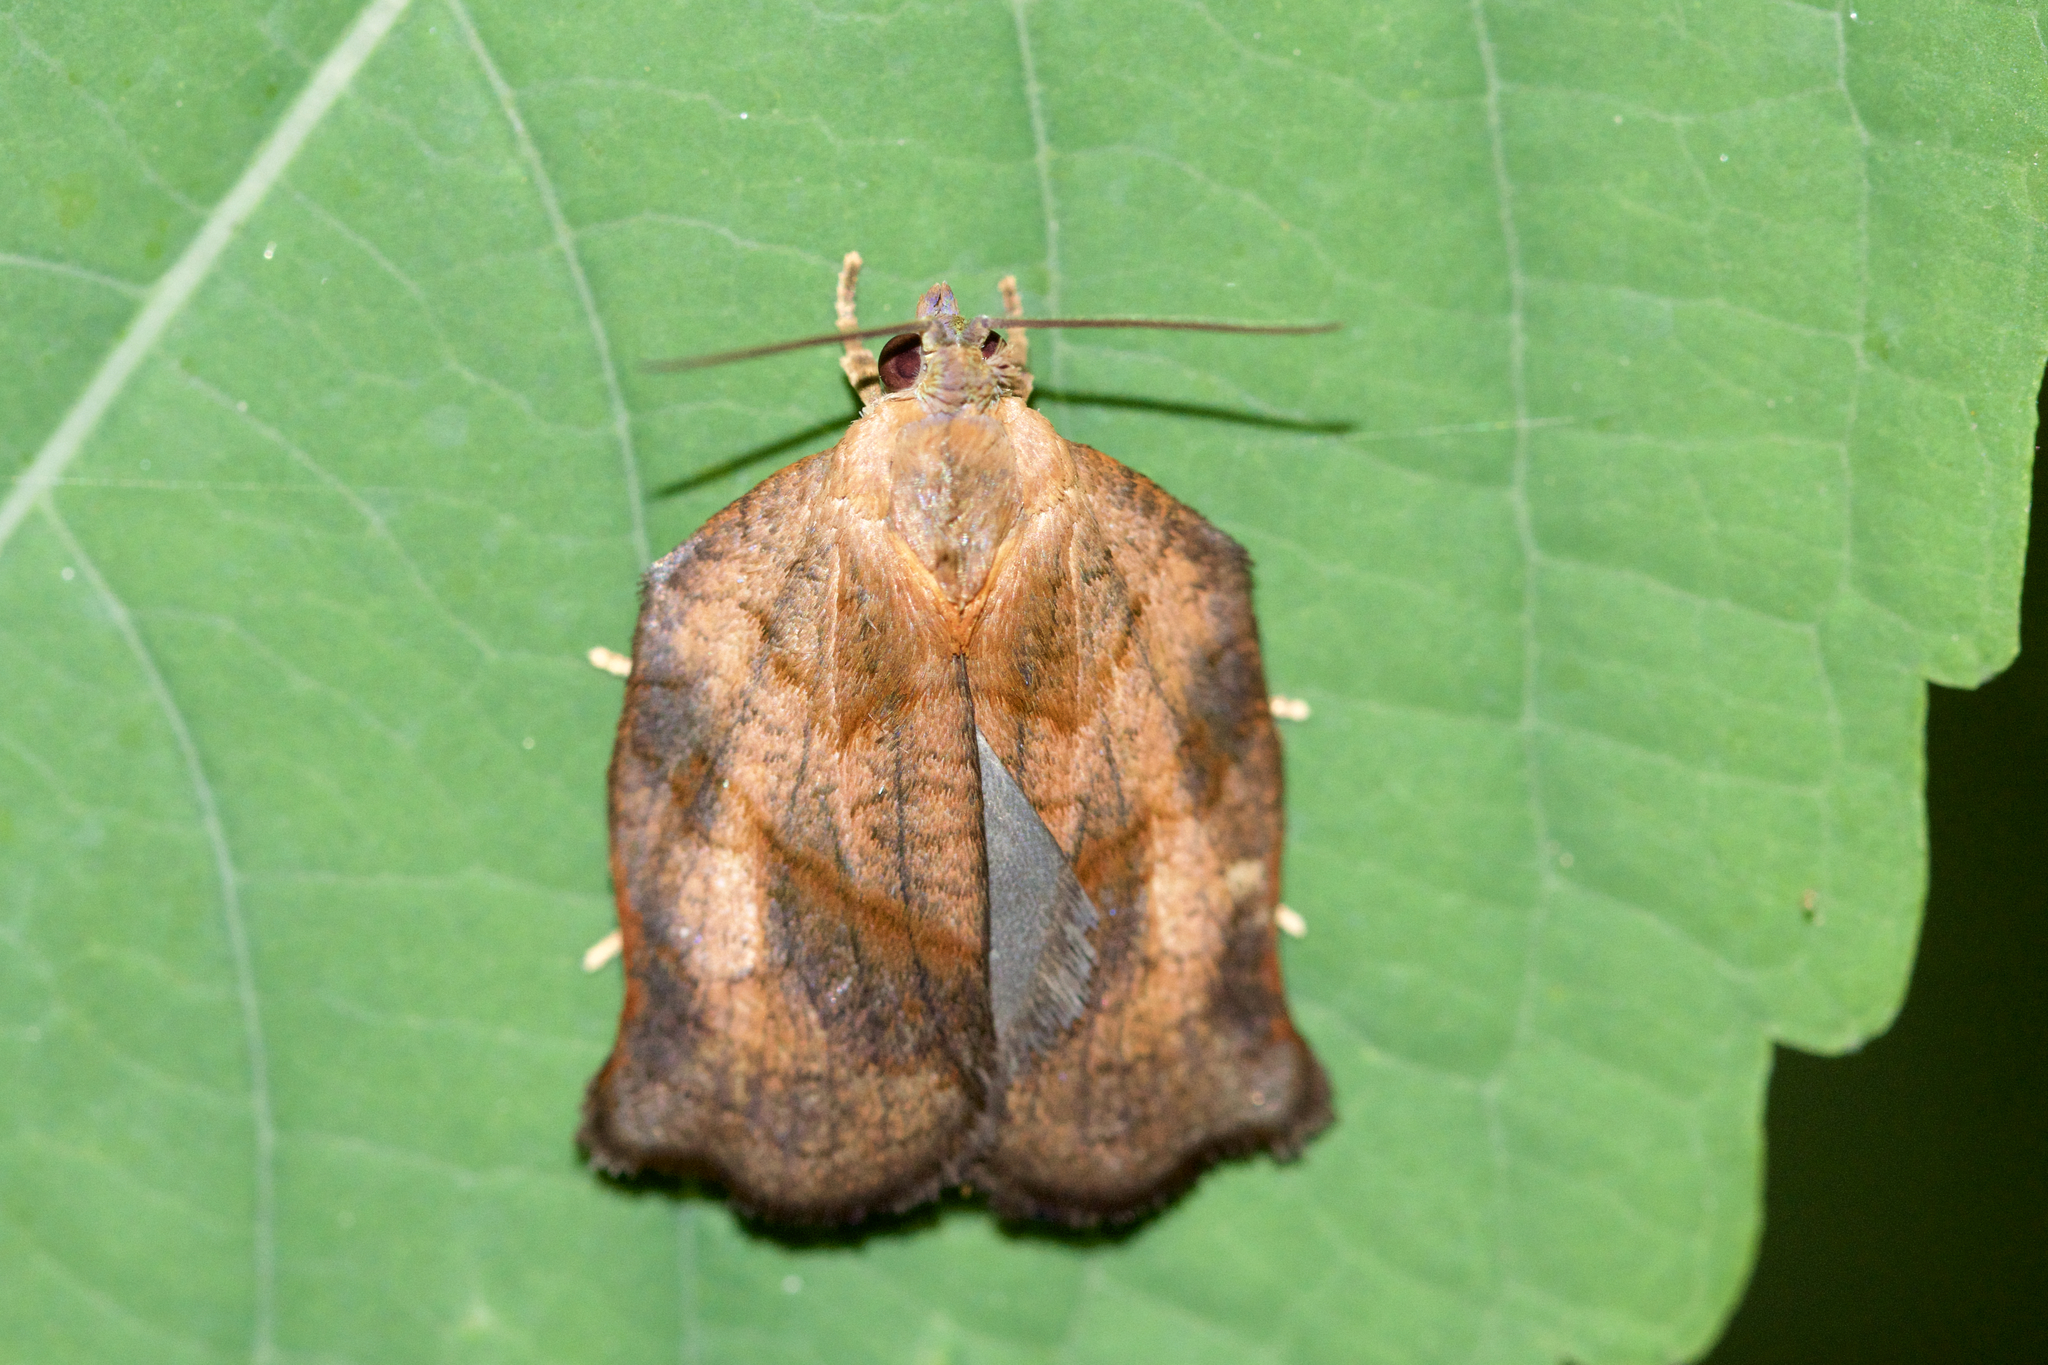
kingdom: Animalia
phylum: Arthropoda
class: Insecta
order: Lepidoptera
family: Tortricidae
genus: Archips
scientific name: Archips purpurana
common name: Omnivorous leafroller
